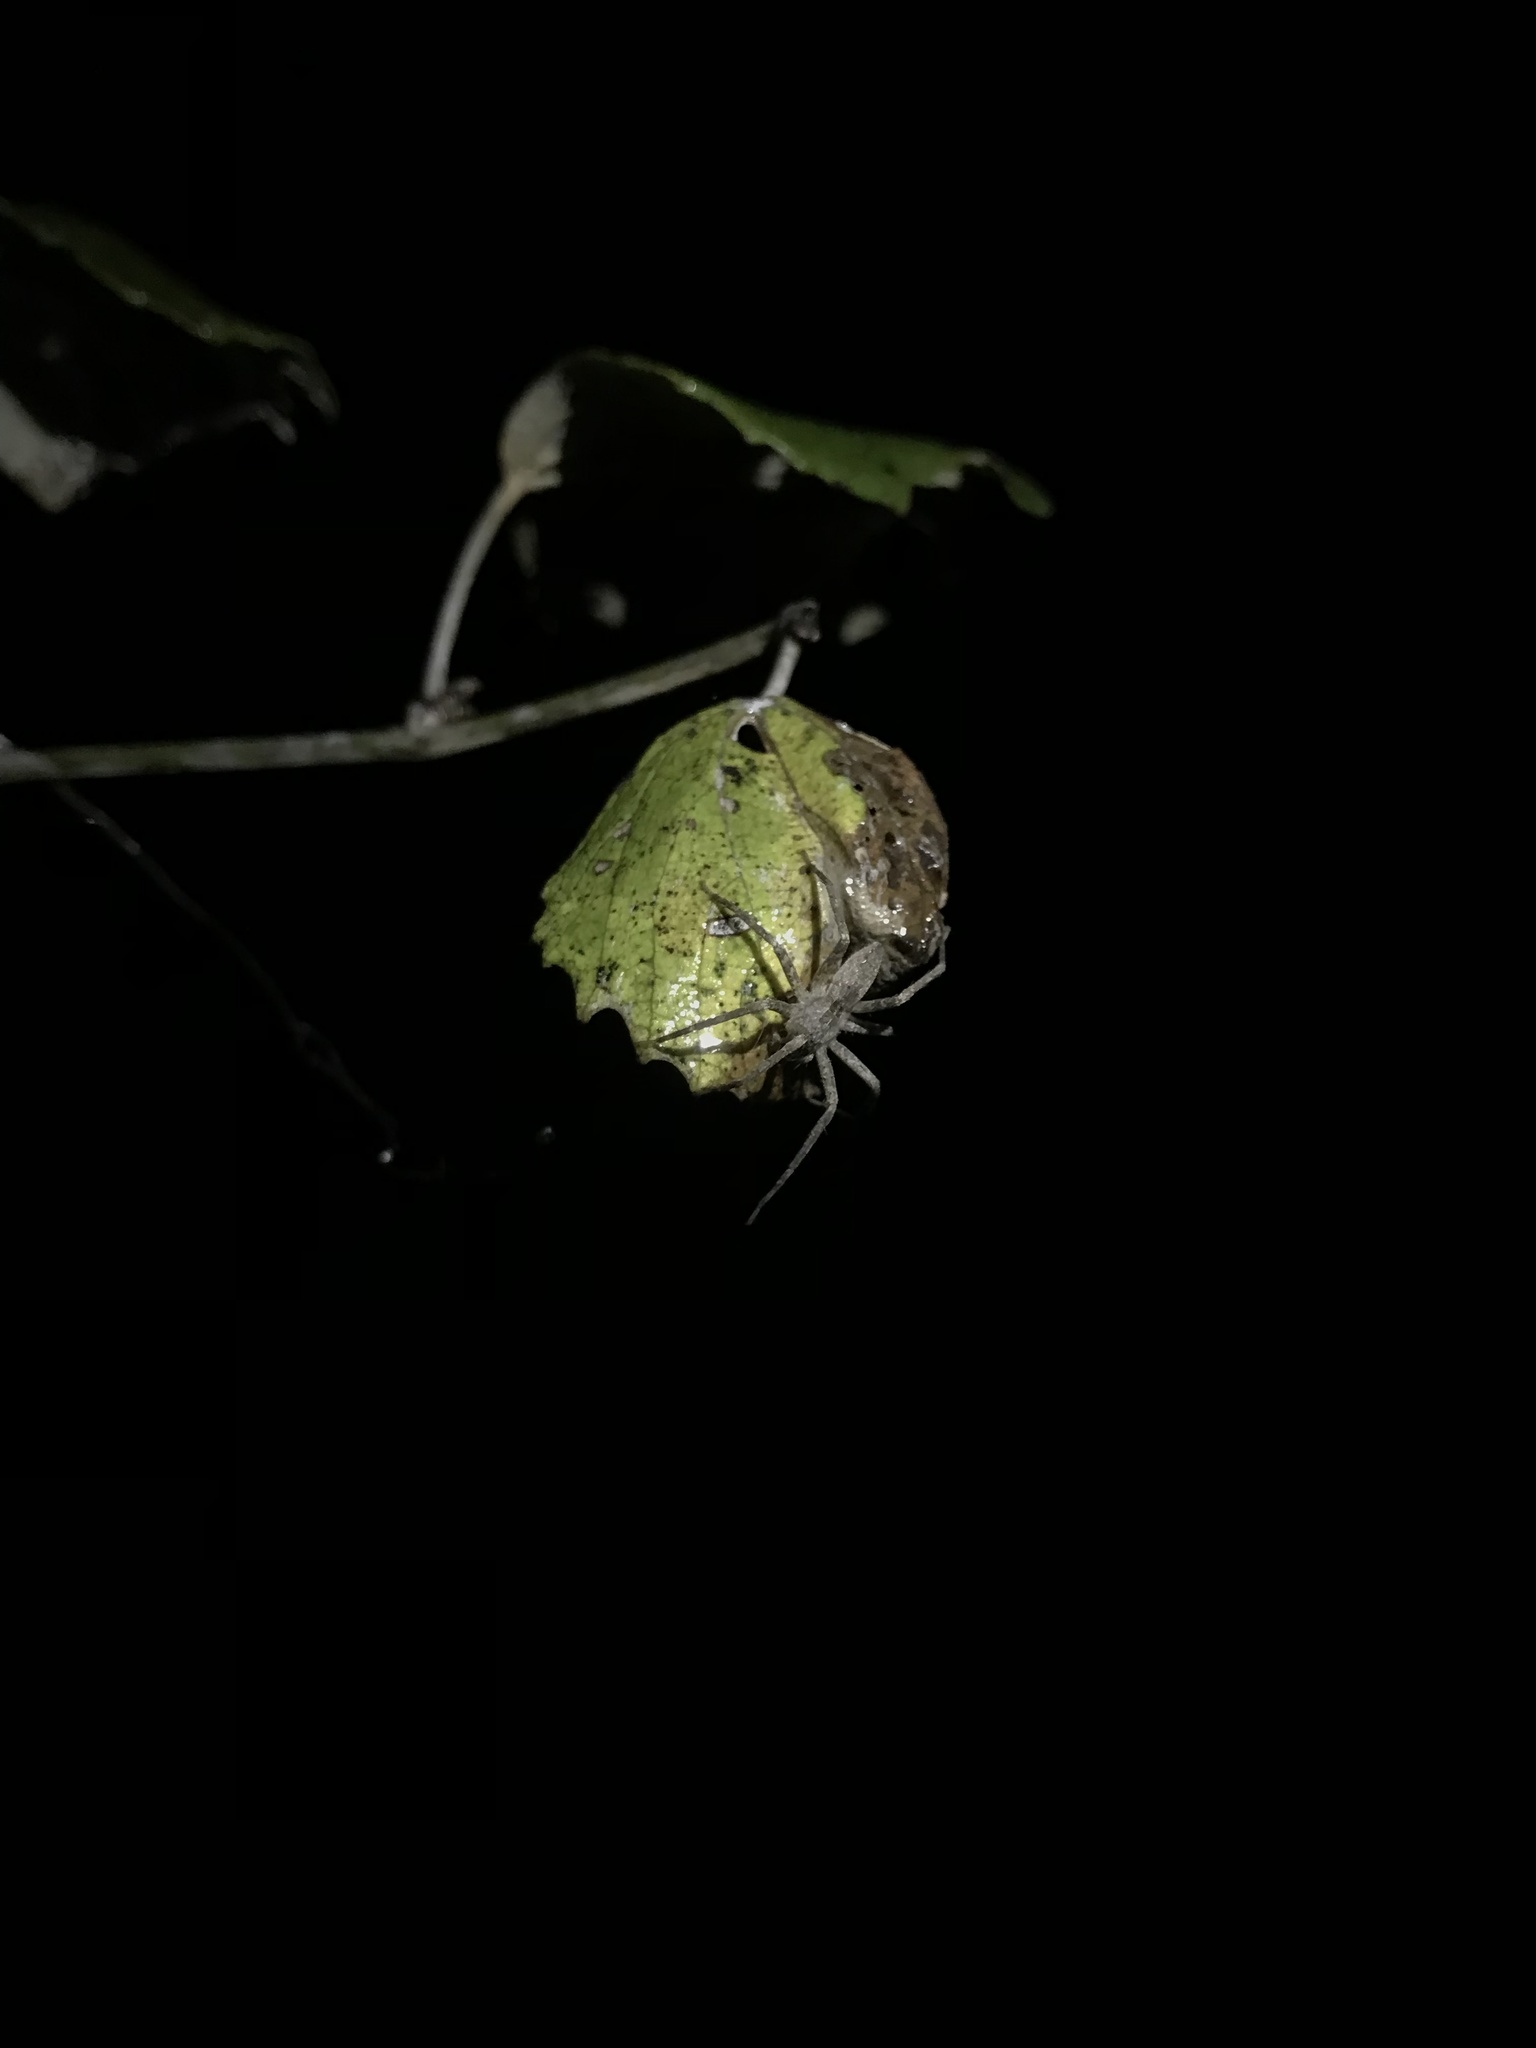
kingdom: Animalia
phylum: Arthropoda
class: Arachnida
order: Araneae
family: Pisauridae
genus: Pisaurina
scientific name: Pisaurina mira
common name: American nursery web spider
